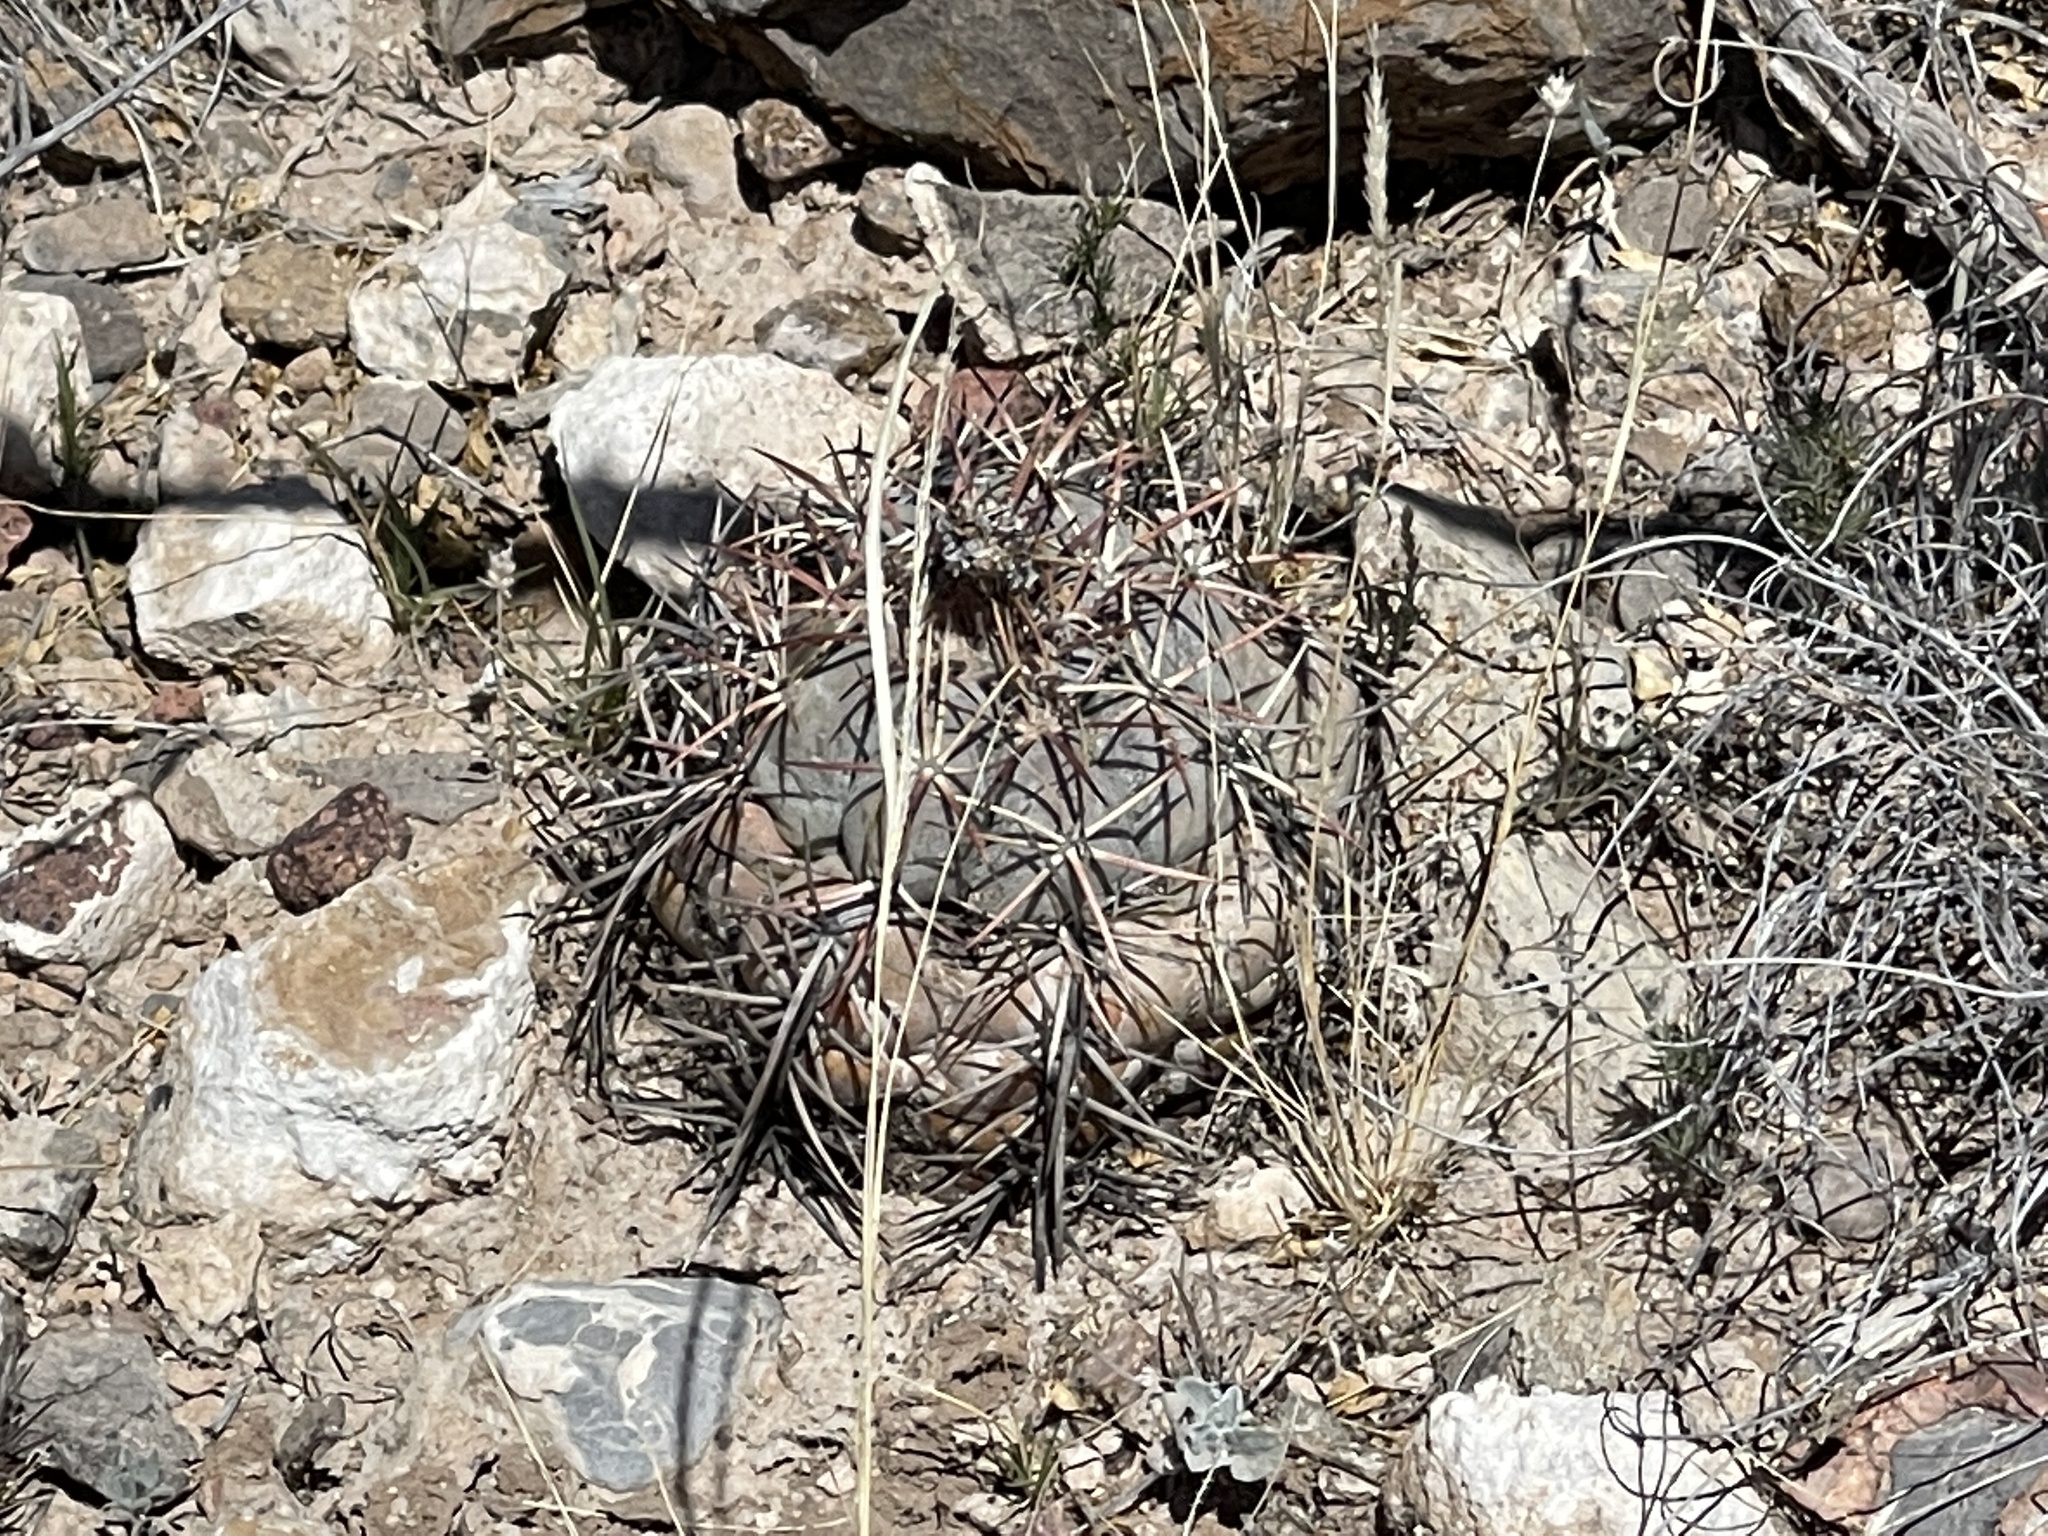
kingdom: Plantae
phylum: Tracheophyta
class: Magnoliopsida
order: Caryophyllales
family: Cactaceae
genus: Echinocactus
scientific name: Echinocactus horizonthalonius
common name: Devilshead
